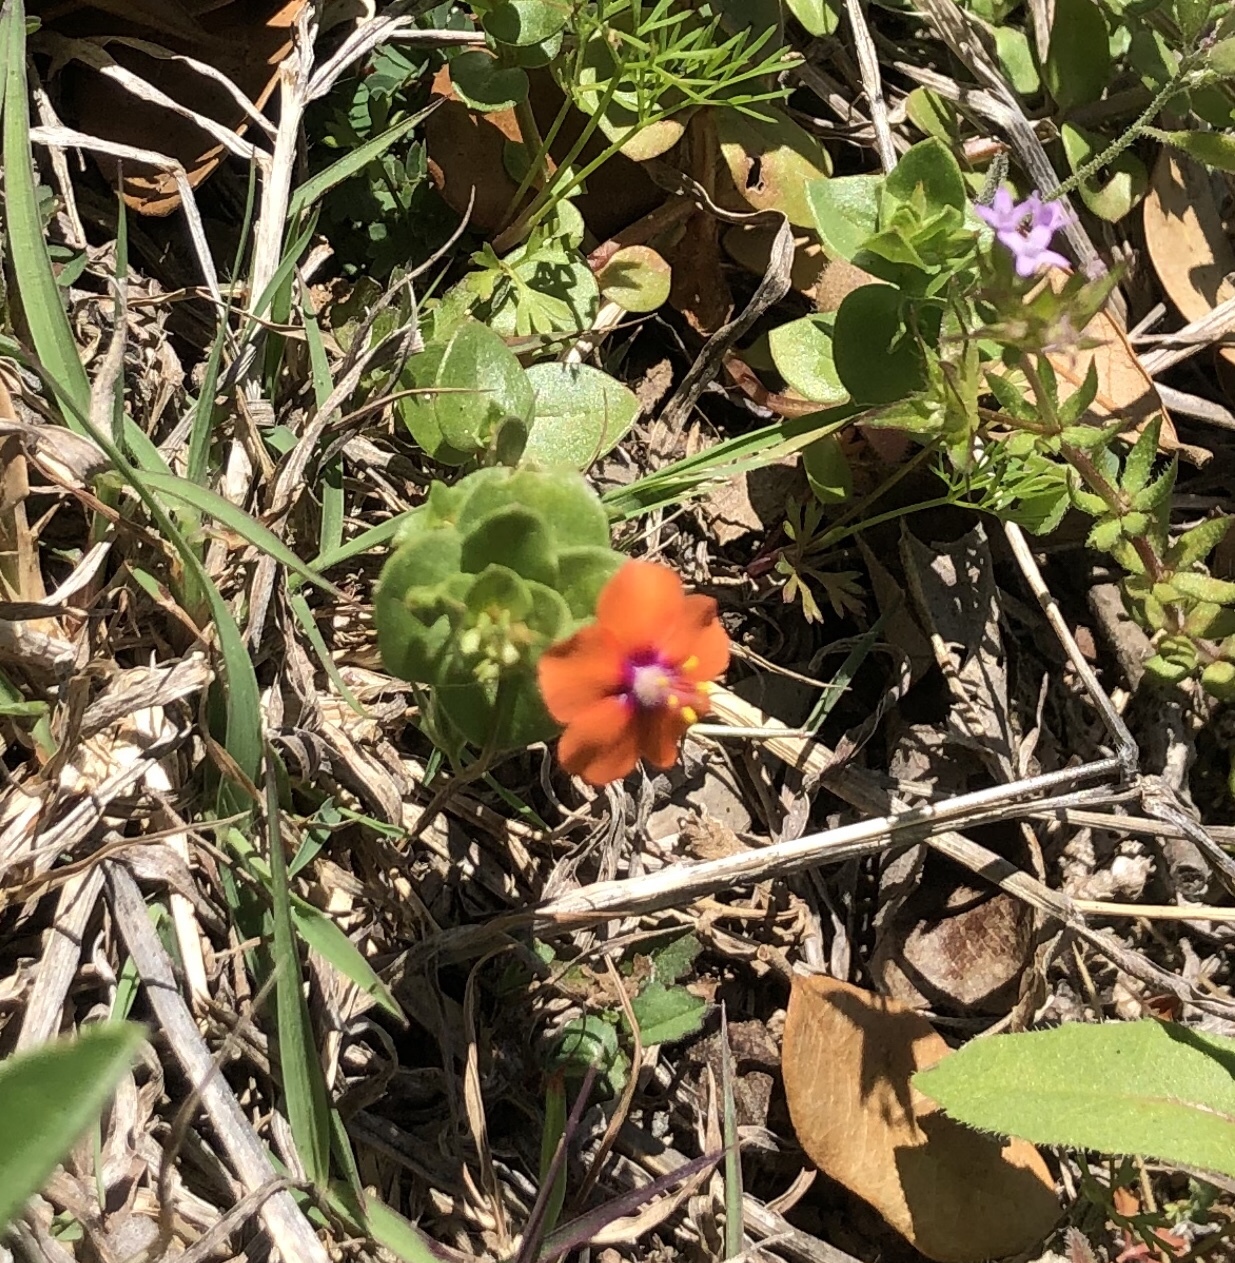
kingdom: Plantae
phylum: Tracheophyta
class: Magnoliopsida
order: Ericales
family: Primulaceae
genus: Lysimachia
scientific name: Lysimachia arvensis
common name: Scarlet pimpernel
